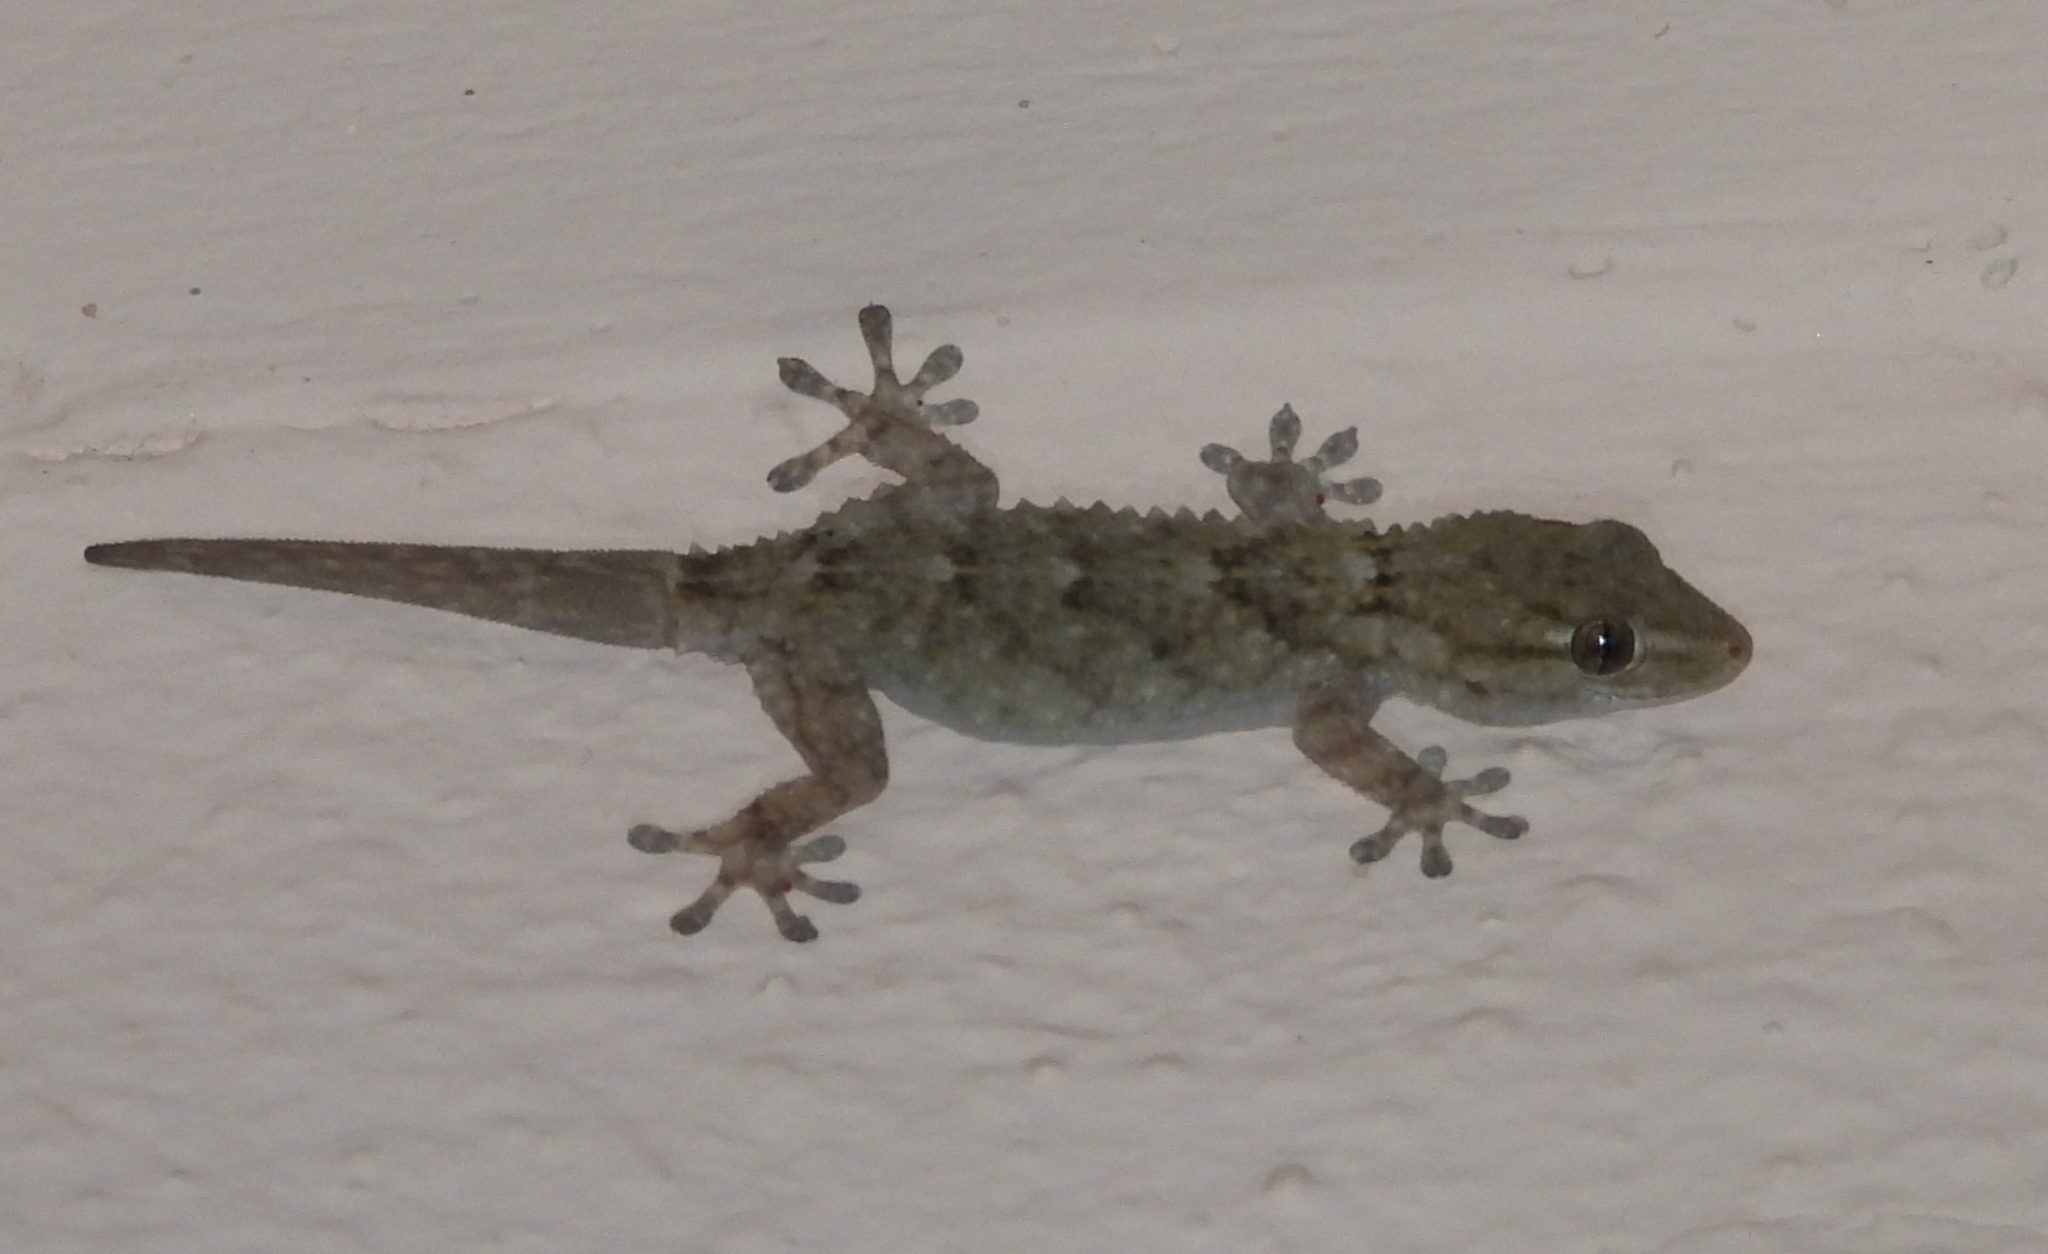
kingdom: Animalia
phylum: Chordata
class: Squamata
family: Phyllodactylidae
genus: Tarentola
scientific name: Tarentola mauritanica
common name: Moorish gecko
